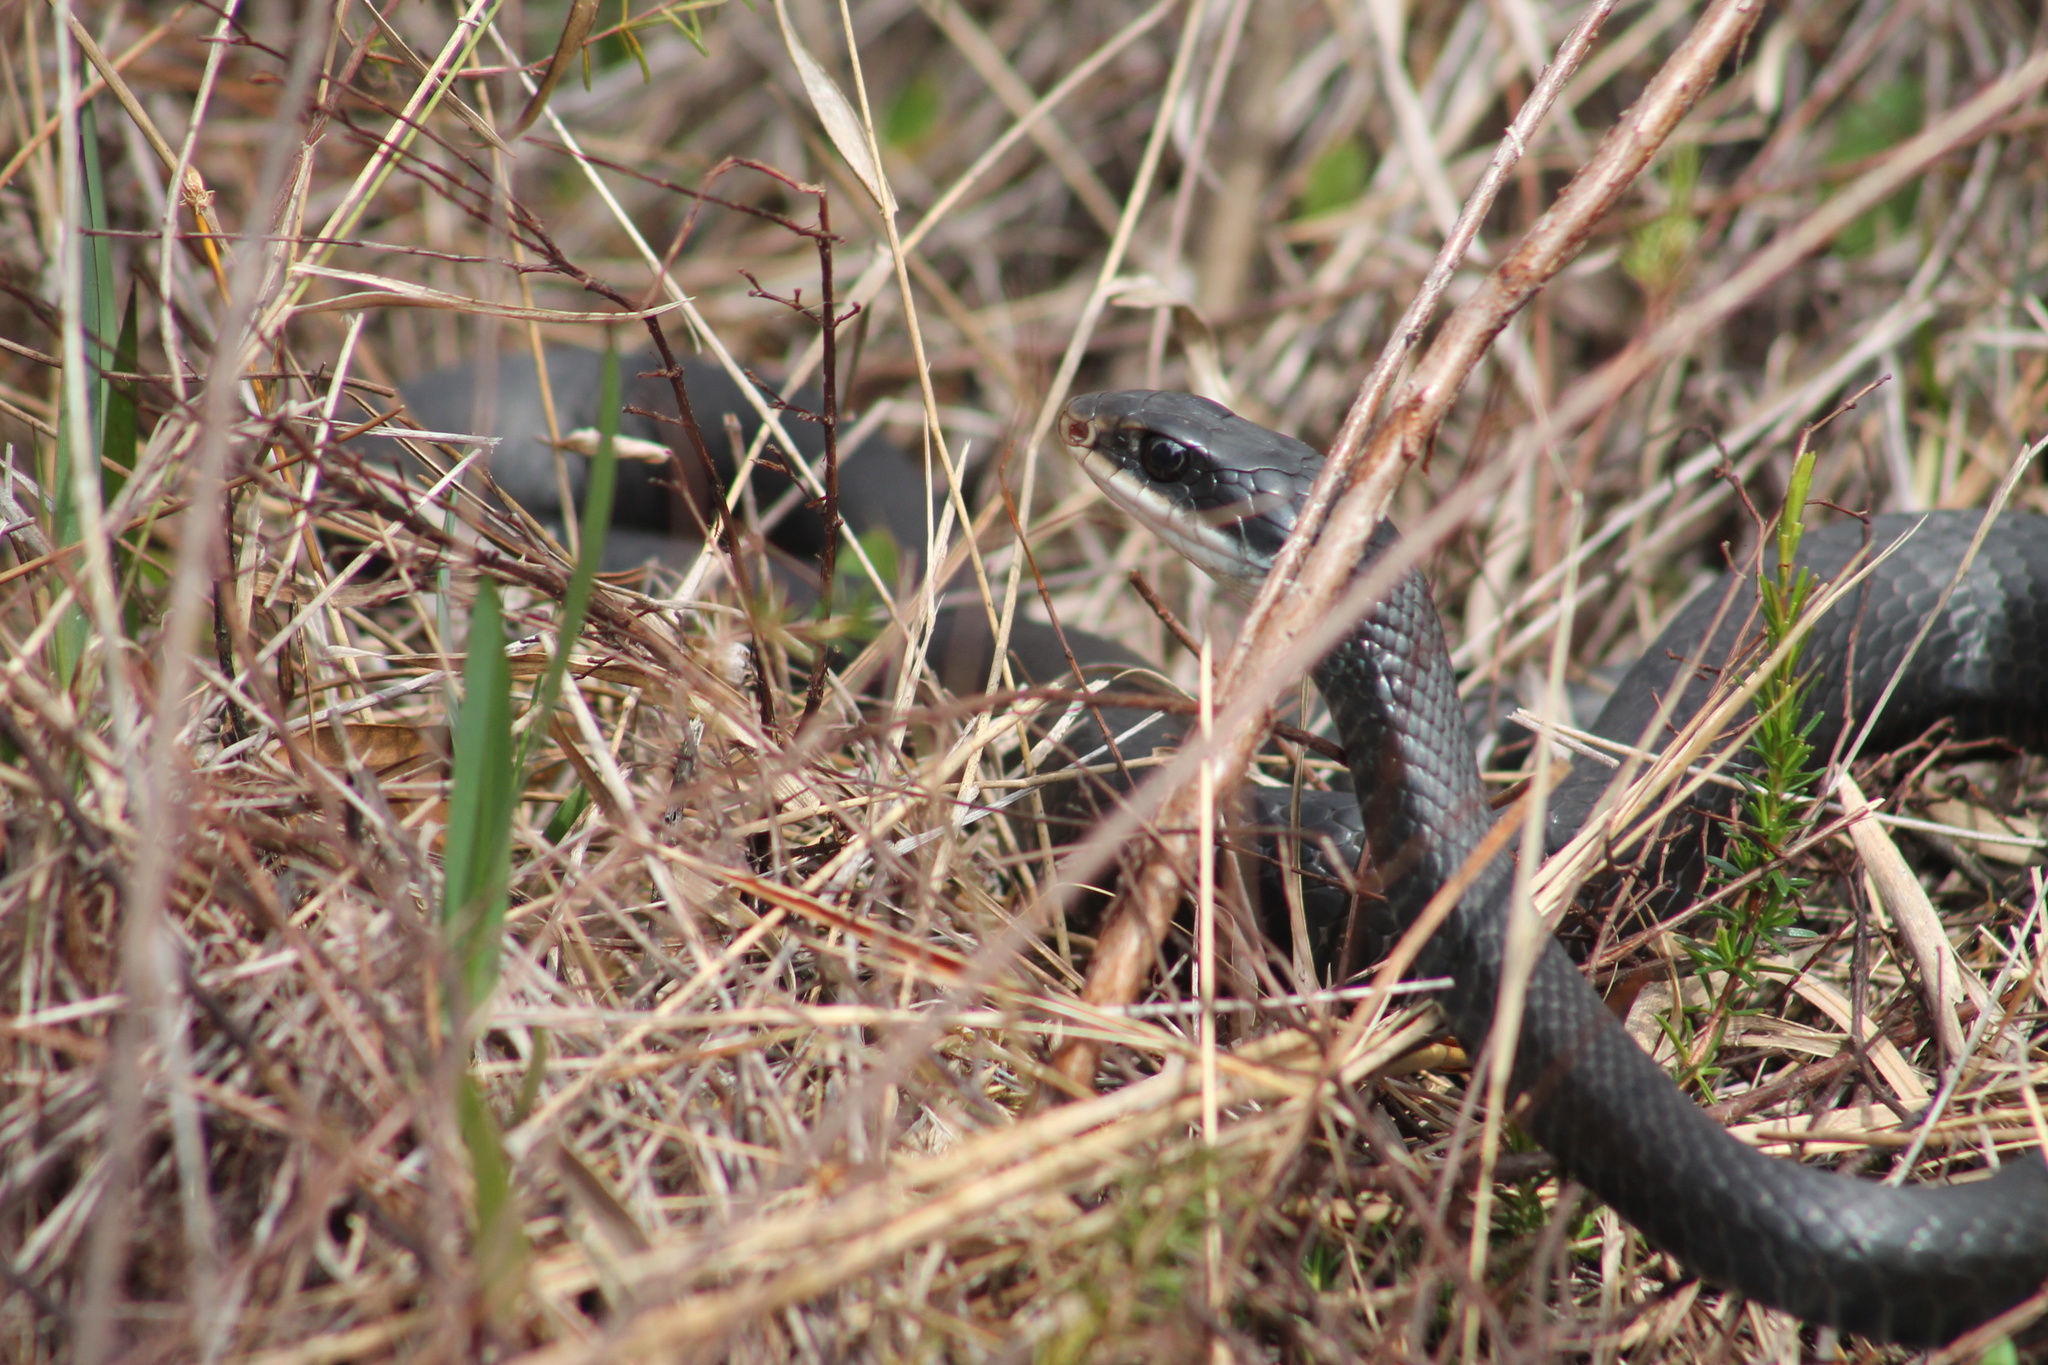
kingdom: Animalia
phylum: Chordata
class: Squamata
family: Colubridae
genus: Coluber
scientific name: Coluber constrictor
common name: Eastern racer
